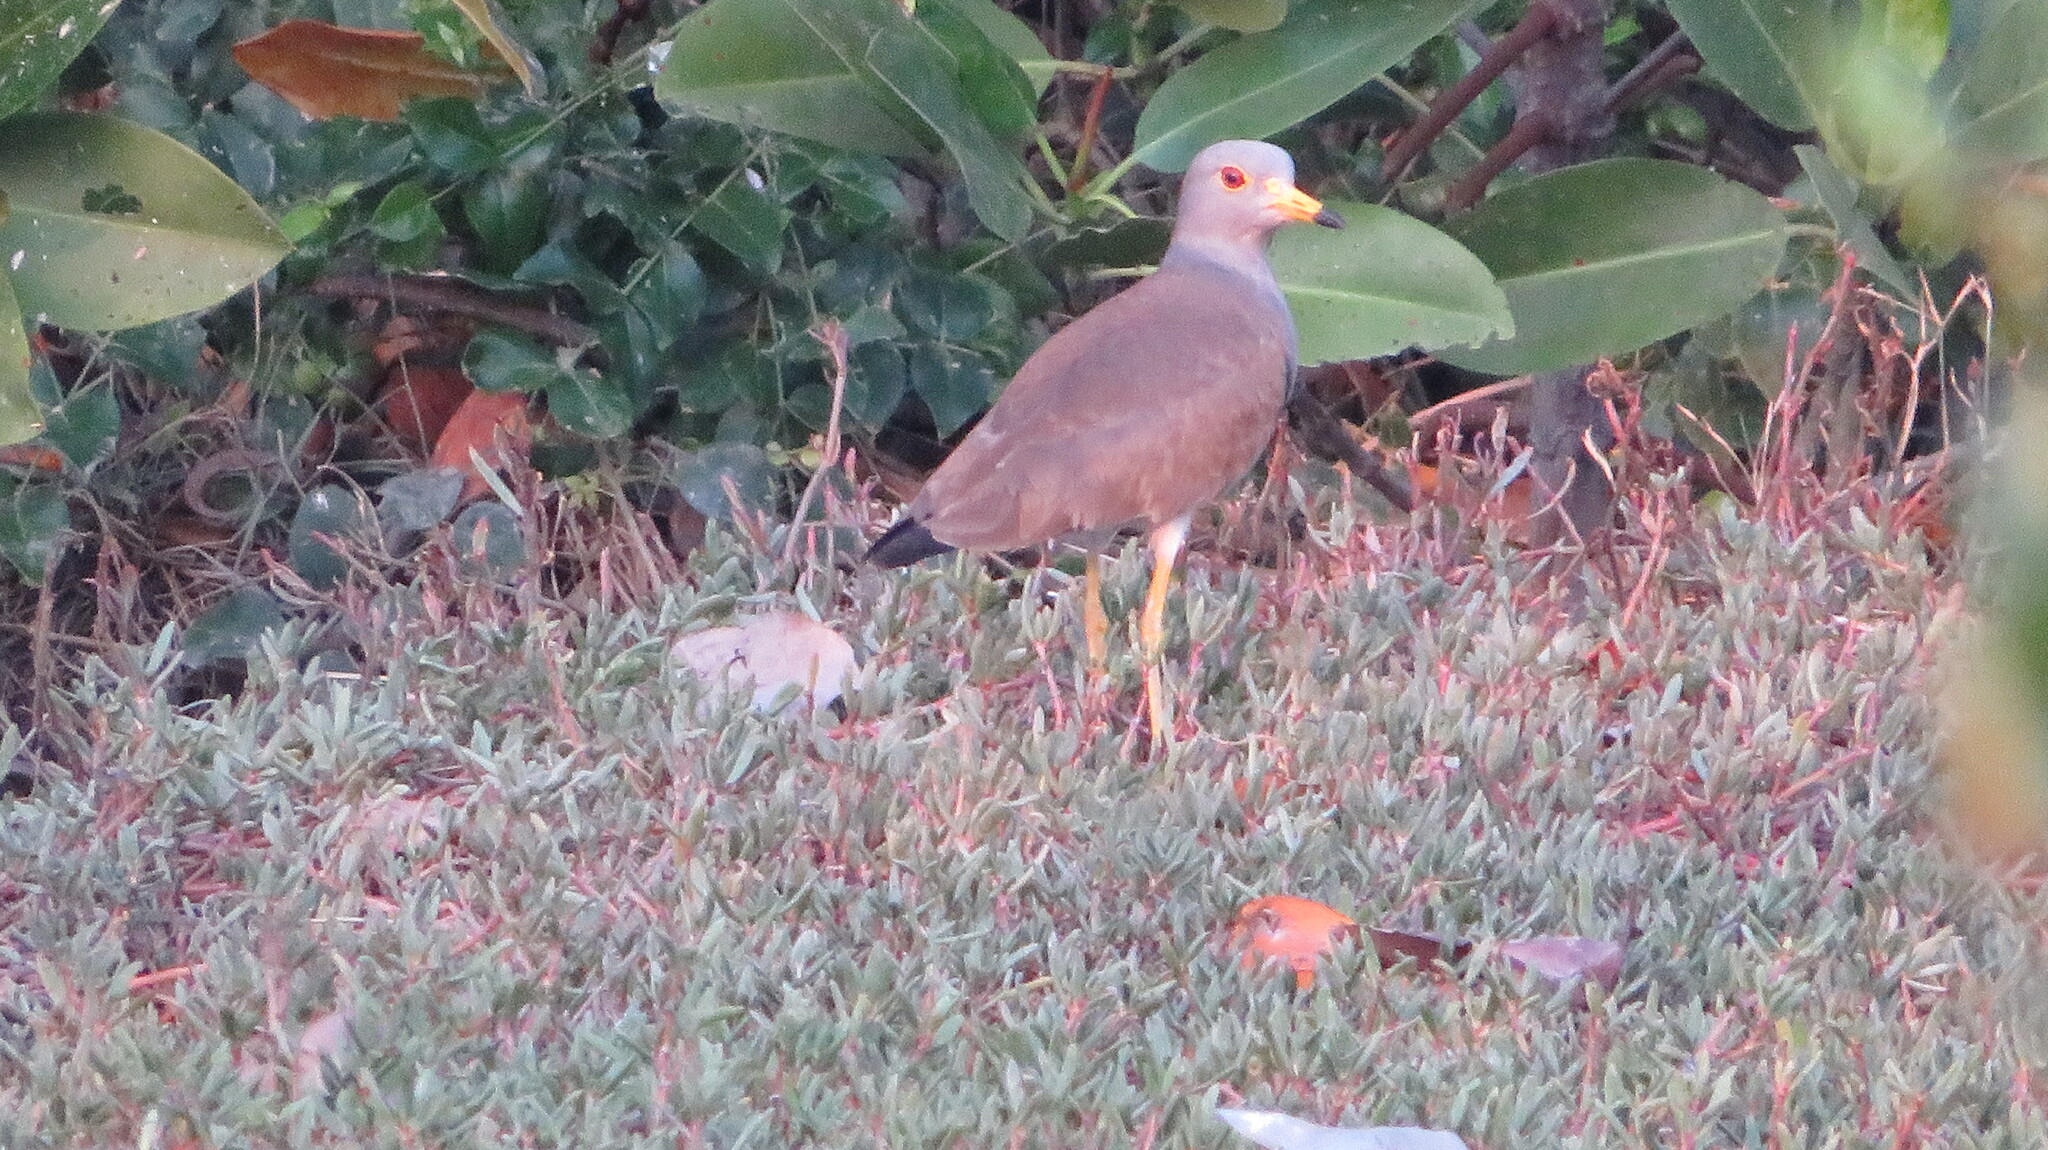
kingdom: Animalia
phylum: Chordata
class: Aves
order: Charadriiformes
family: Charadriidae
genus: Vanellus
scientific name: Vanellus cinereus
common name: Grey-headed lapwing
